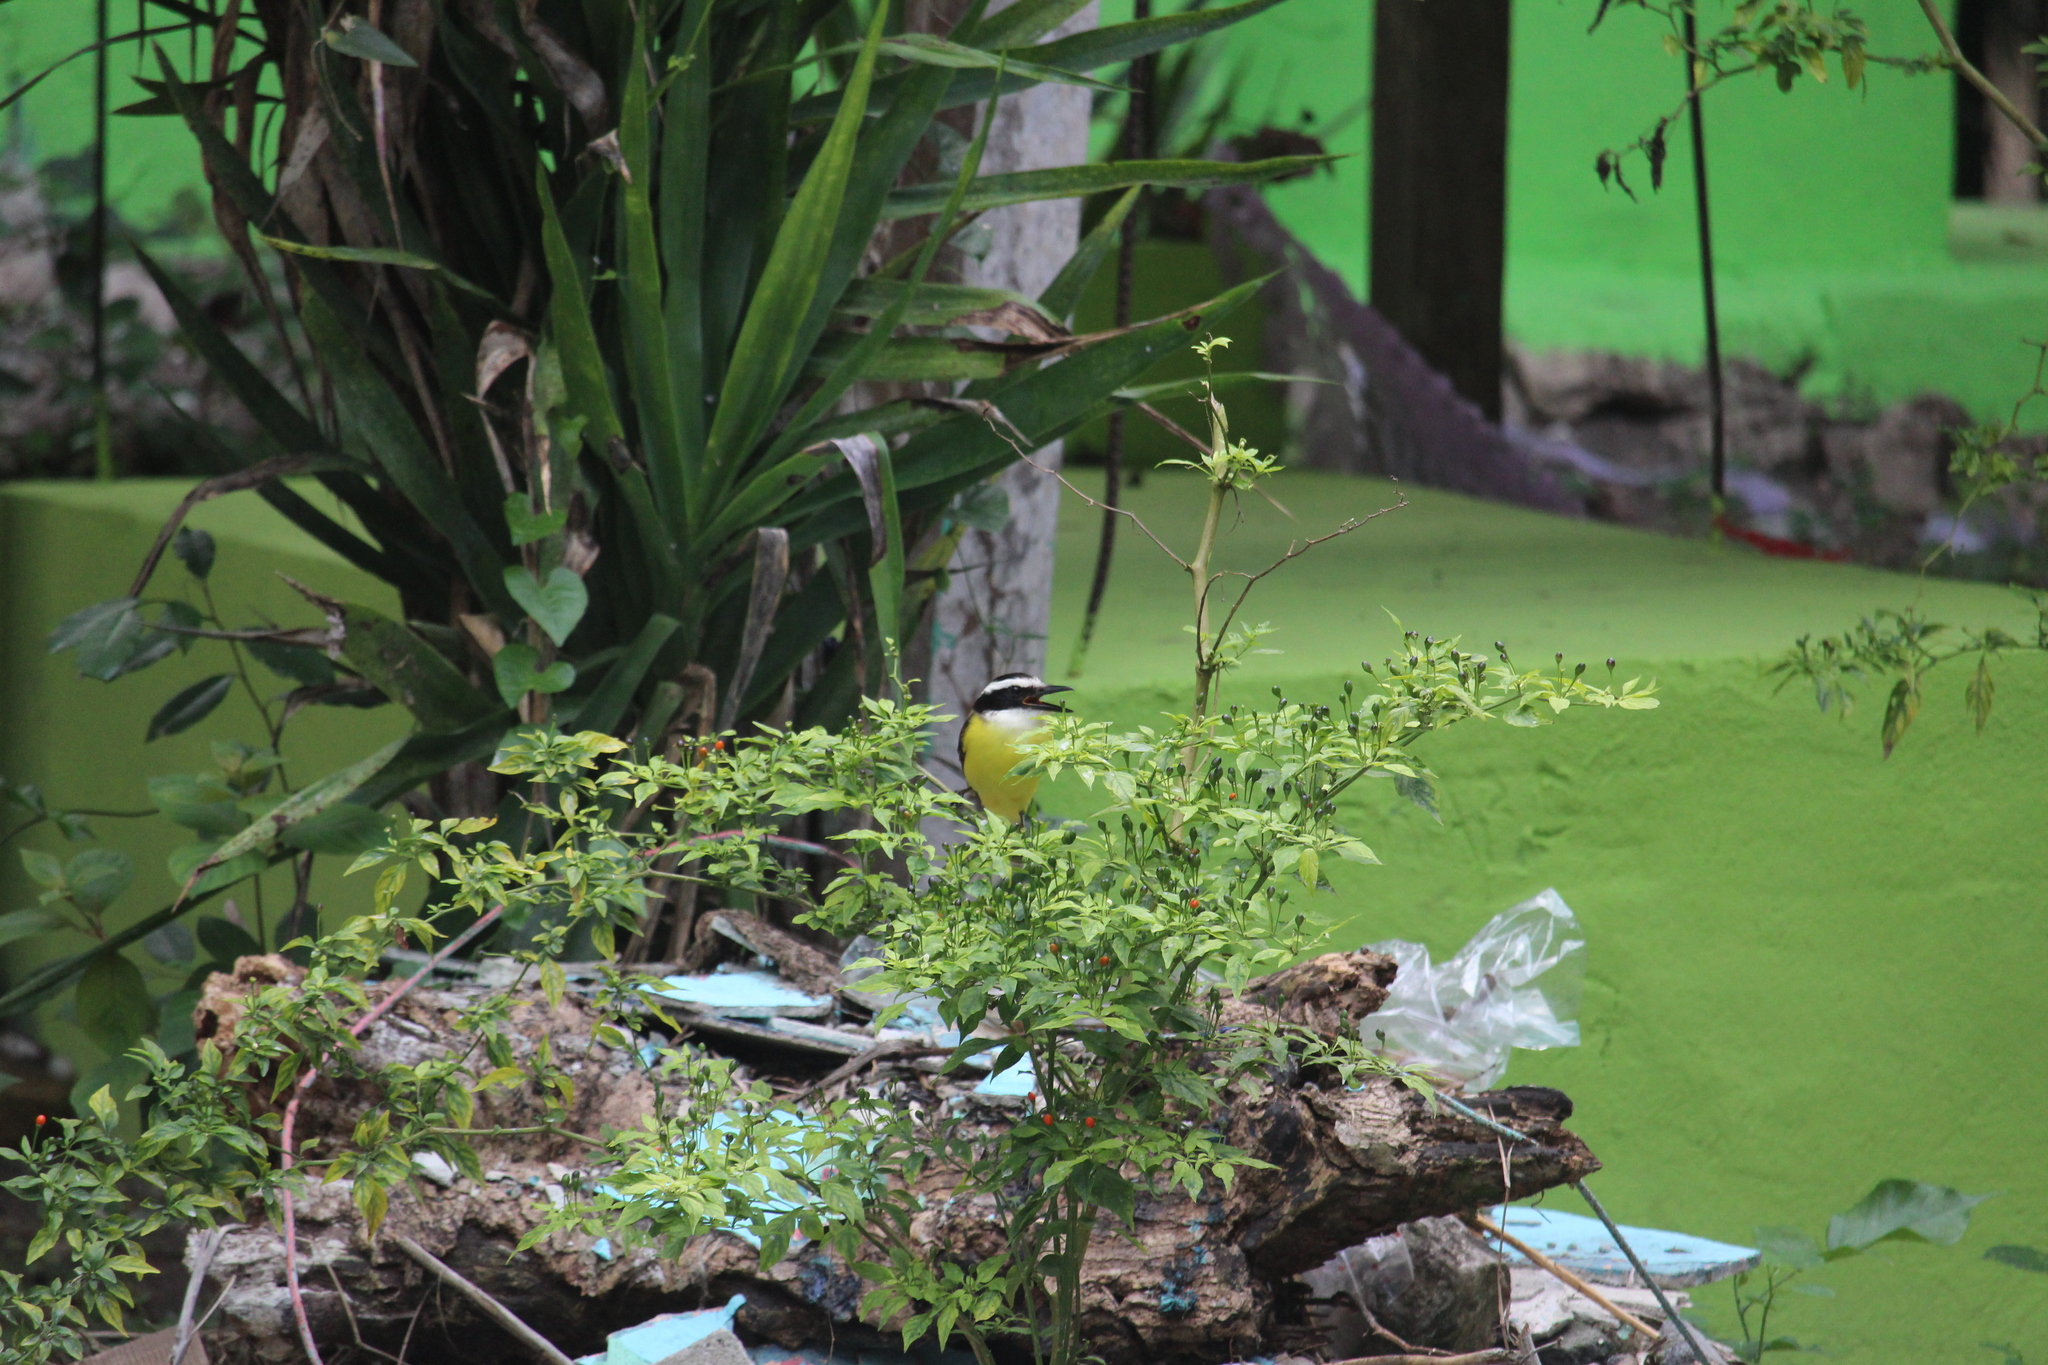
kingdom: Animalia
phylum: Chordata
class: Aves
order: Passeriformes
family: Tyrannidae
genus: Pitangus
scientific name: Pitangus sulphuratus
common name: Great kiskadee
